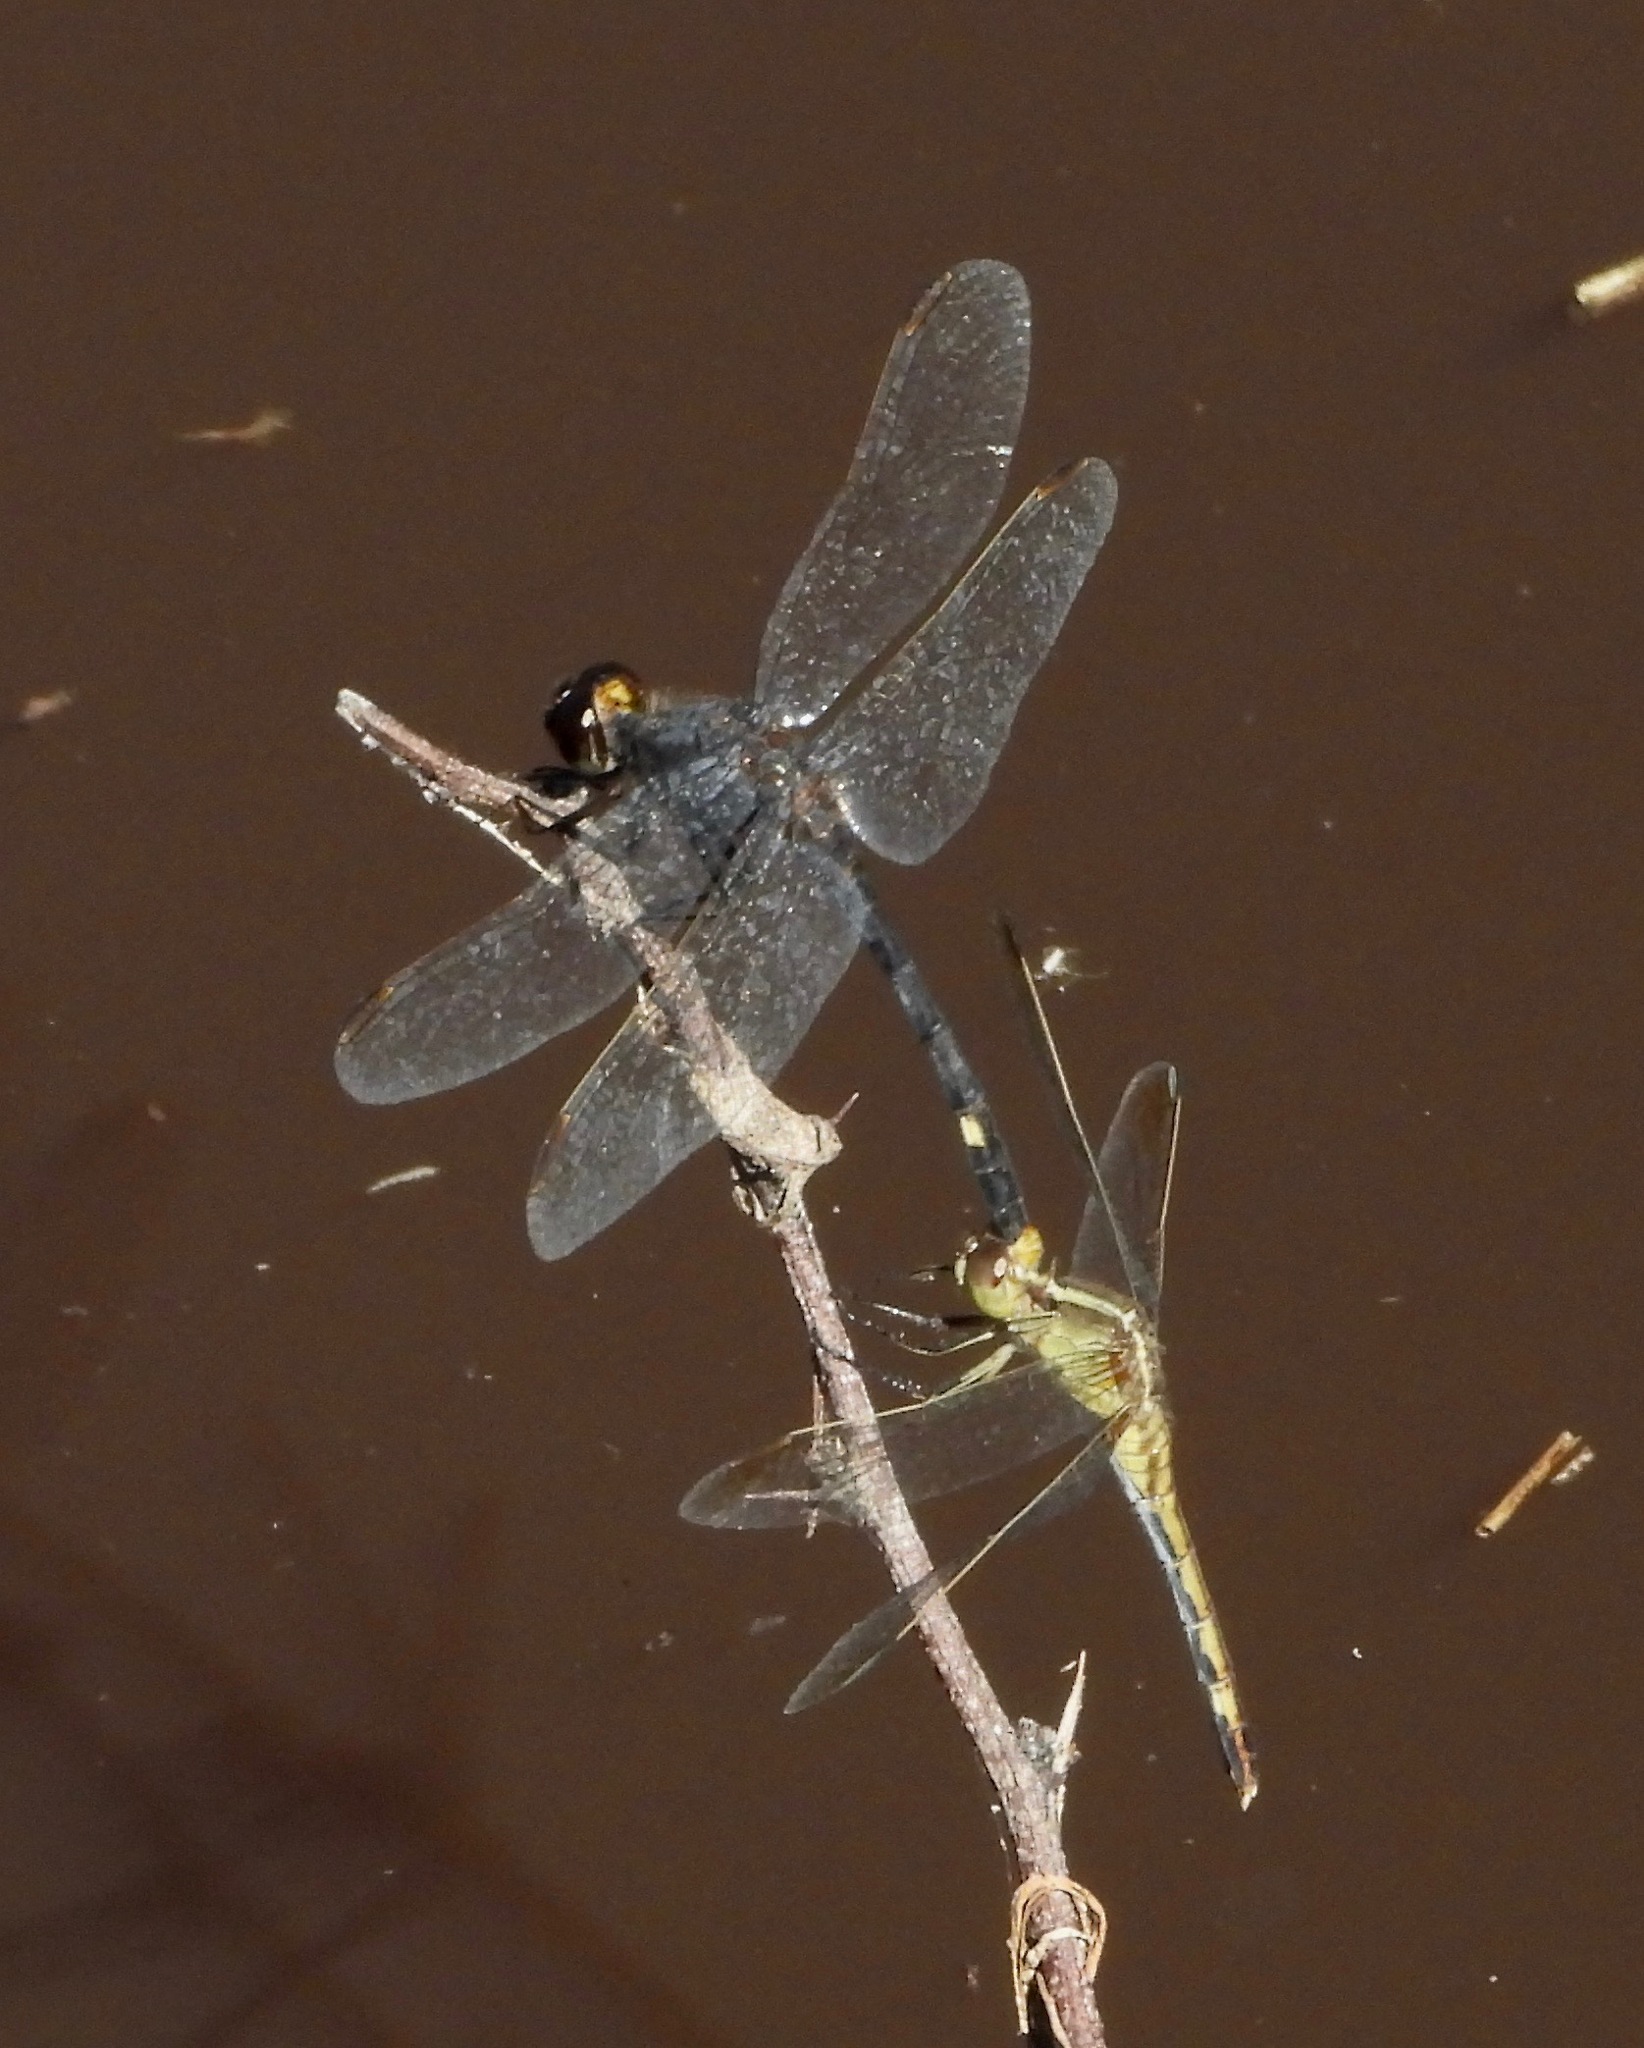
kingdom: Animalia
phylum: Arthropoda
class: Insecta
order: Odonata
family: Libellulidae
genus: Erythrodiplax
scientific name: Erythrodiplax nigricans
